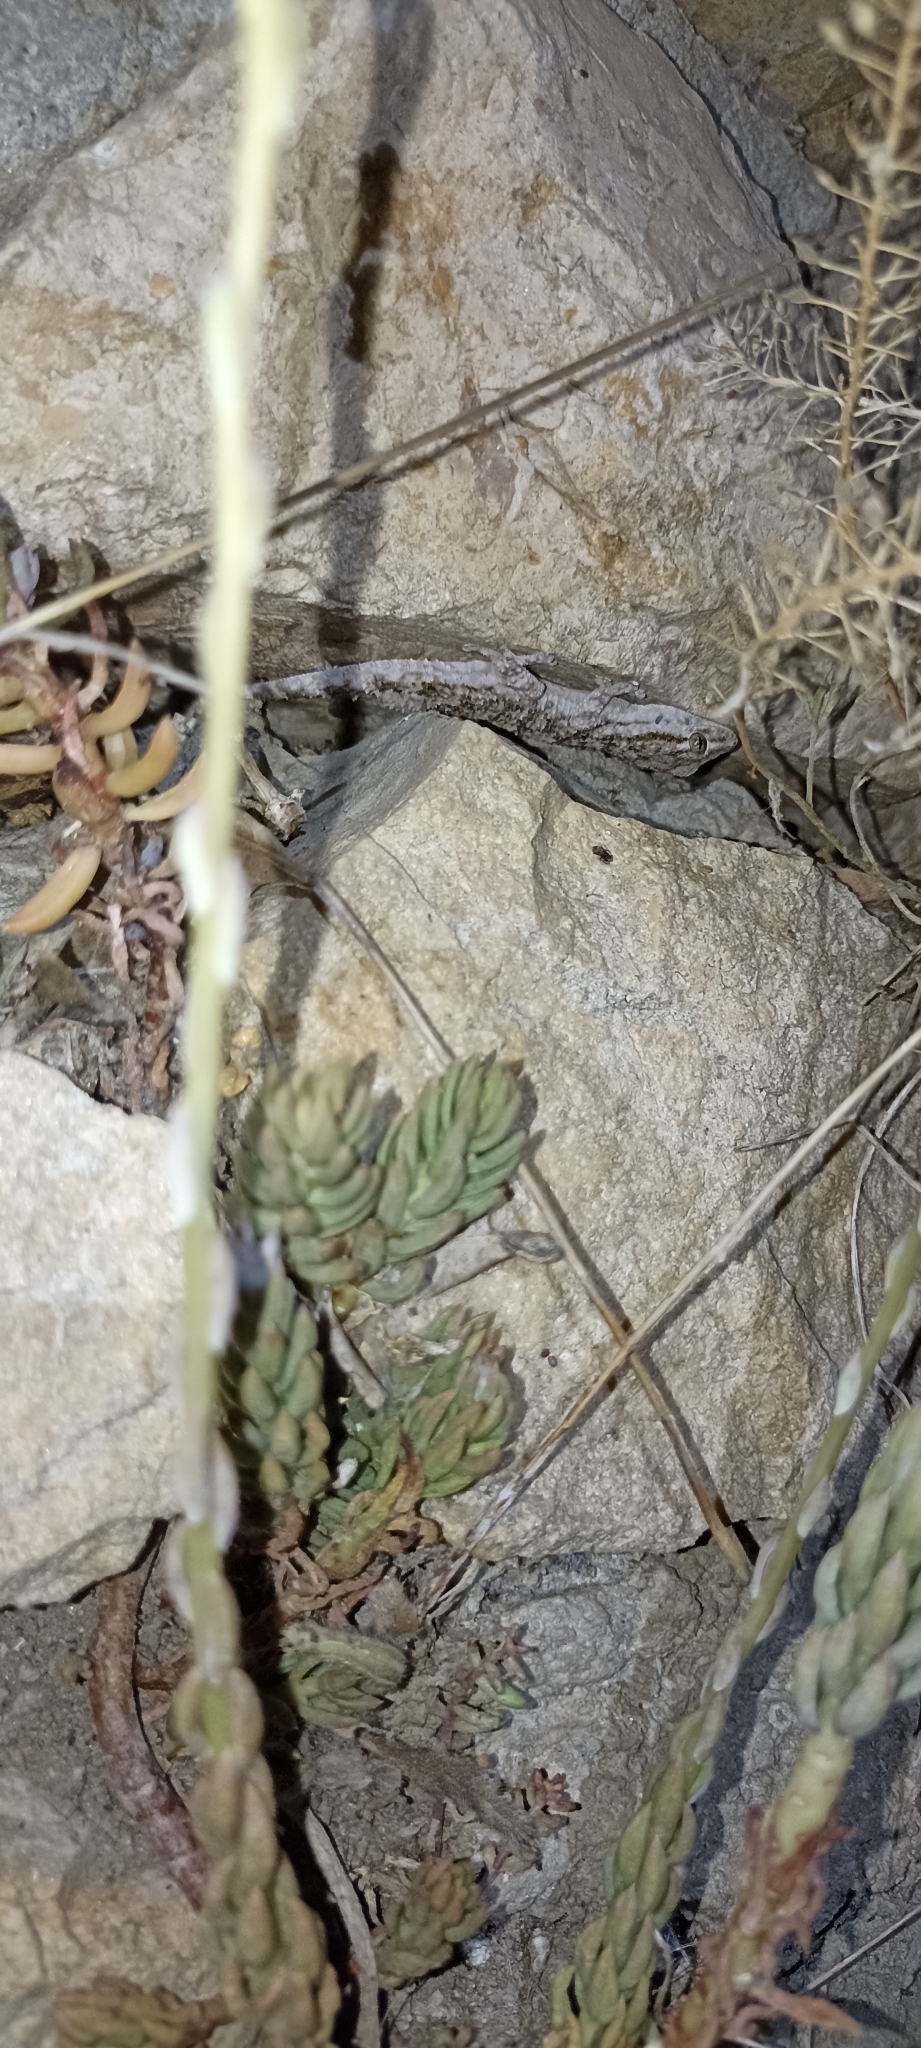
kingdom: Animalia
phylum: Chordata
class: Squamata
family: Phyllodactylidae
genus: Tarentola
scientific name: Tarentola mauritanica
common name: Moorish gecko
